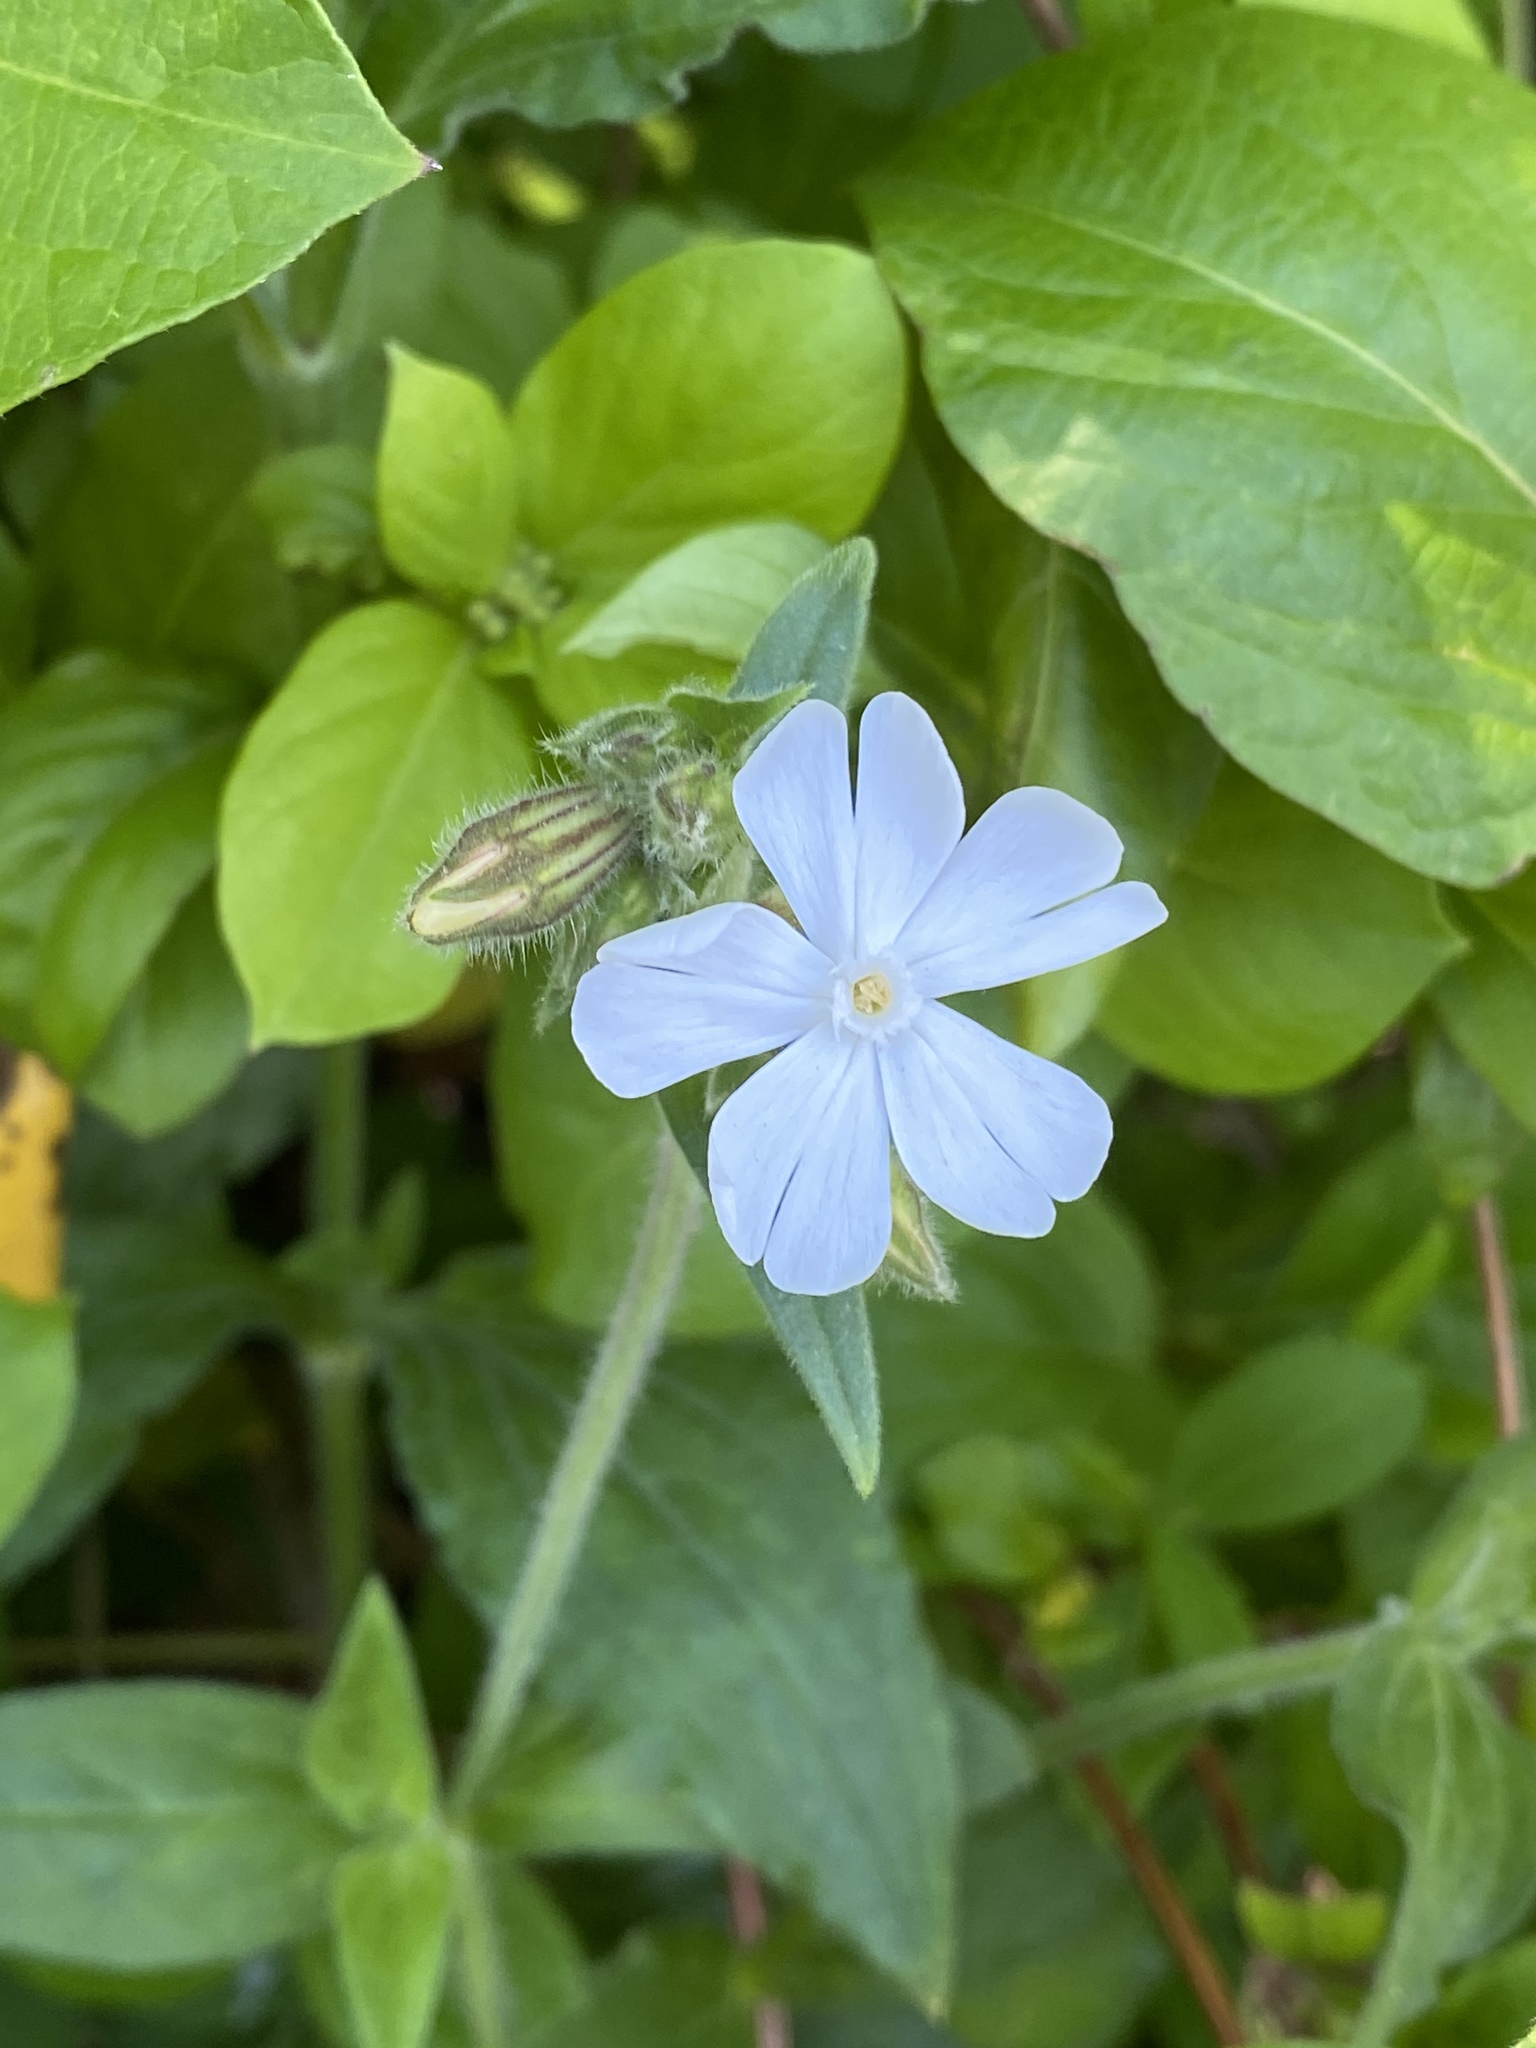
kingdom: Plantae
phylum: Tracheophyta
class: Magnoliopsida
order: Caryophyllales
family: Caryophyllaceae
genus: Silene
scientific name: Silene latifolia
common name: White campion
